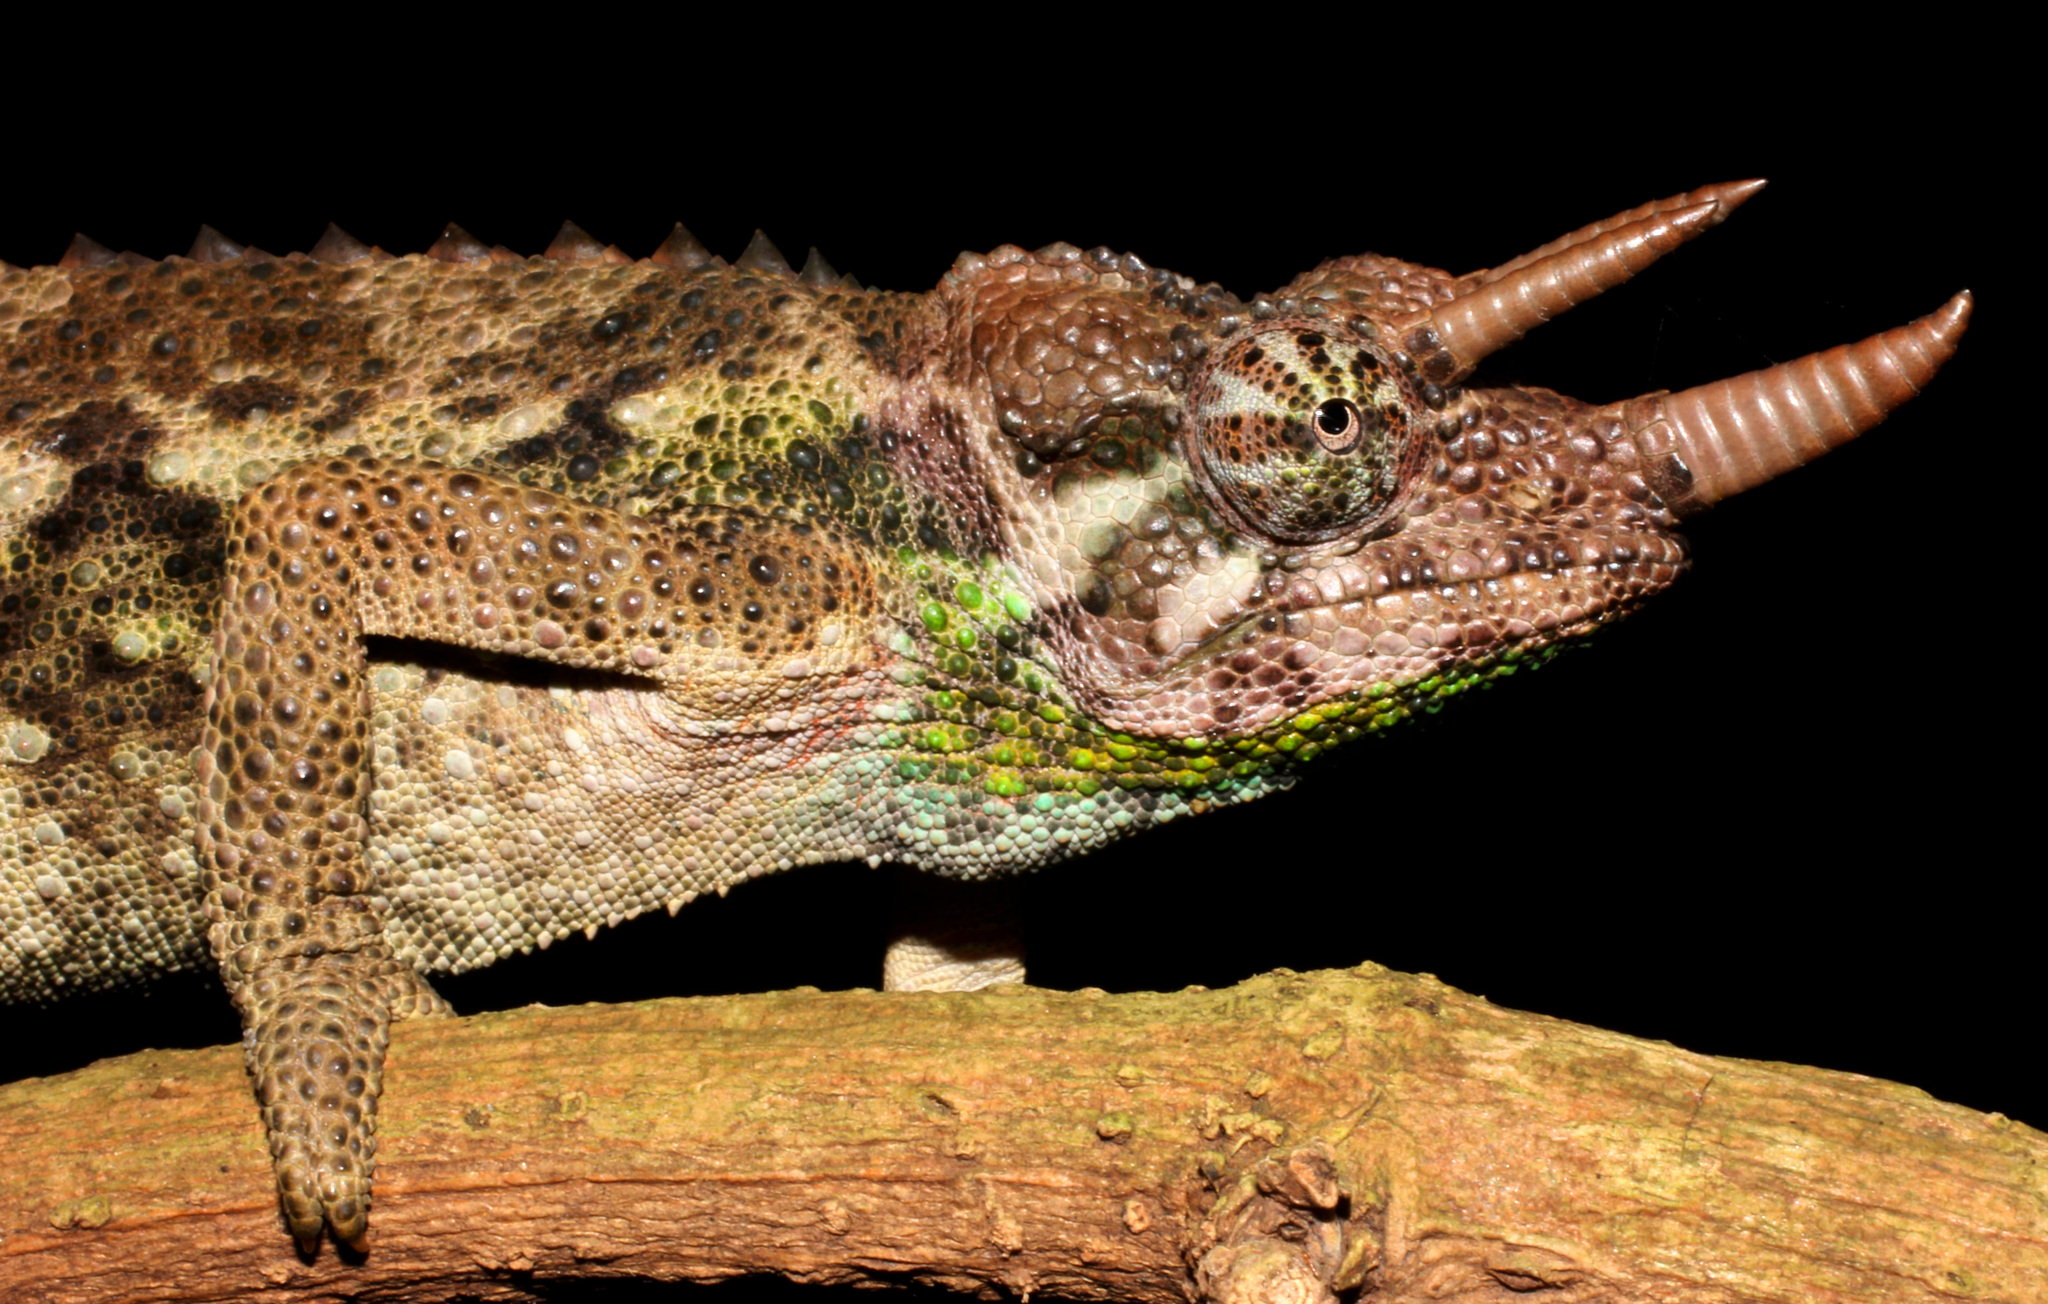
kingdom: Animalia
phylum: Chordata
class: Squamata
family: Chamaeleonidae
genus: Trioceros
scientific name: Trioceros jacksonii
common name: Jackson's chameleon
